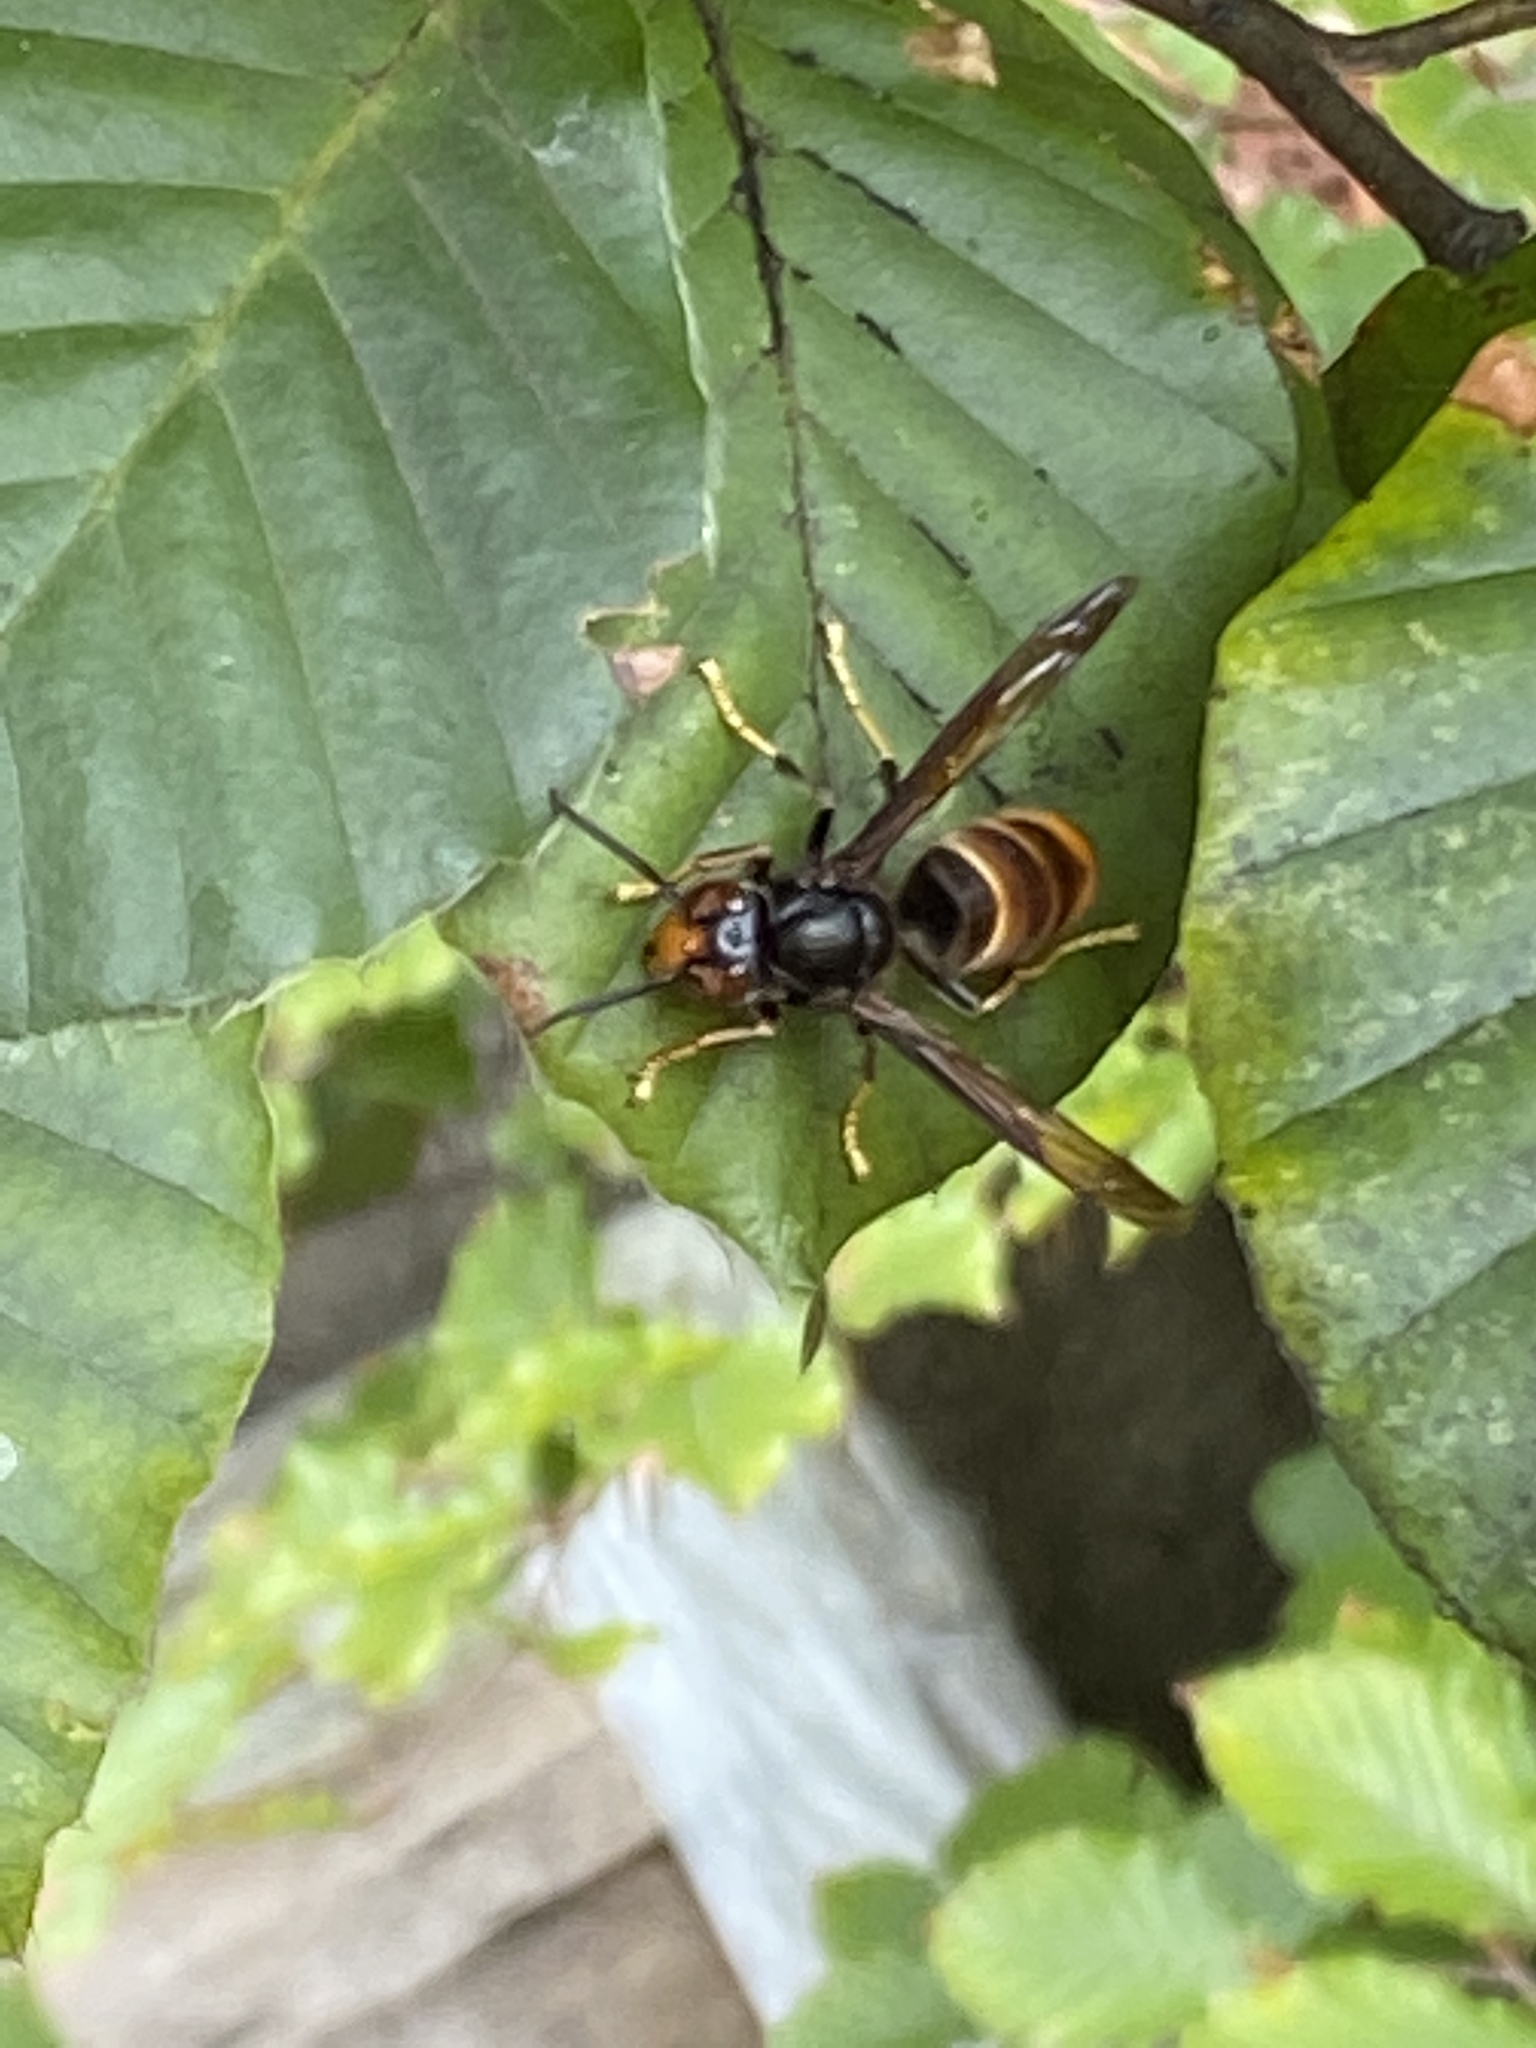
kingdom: Animalia
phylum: Arthropoda
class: Insecta
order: Hymenoptera
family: Vespidae
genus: Vespa
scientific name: Vespa velutina
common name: Asian hornet
